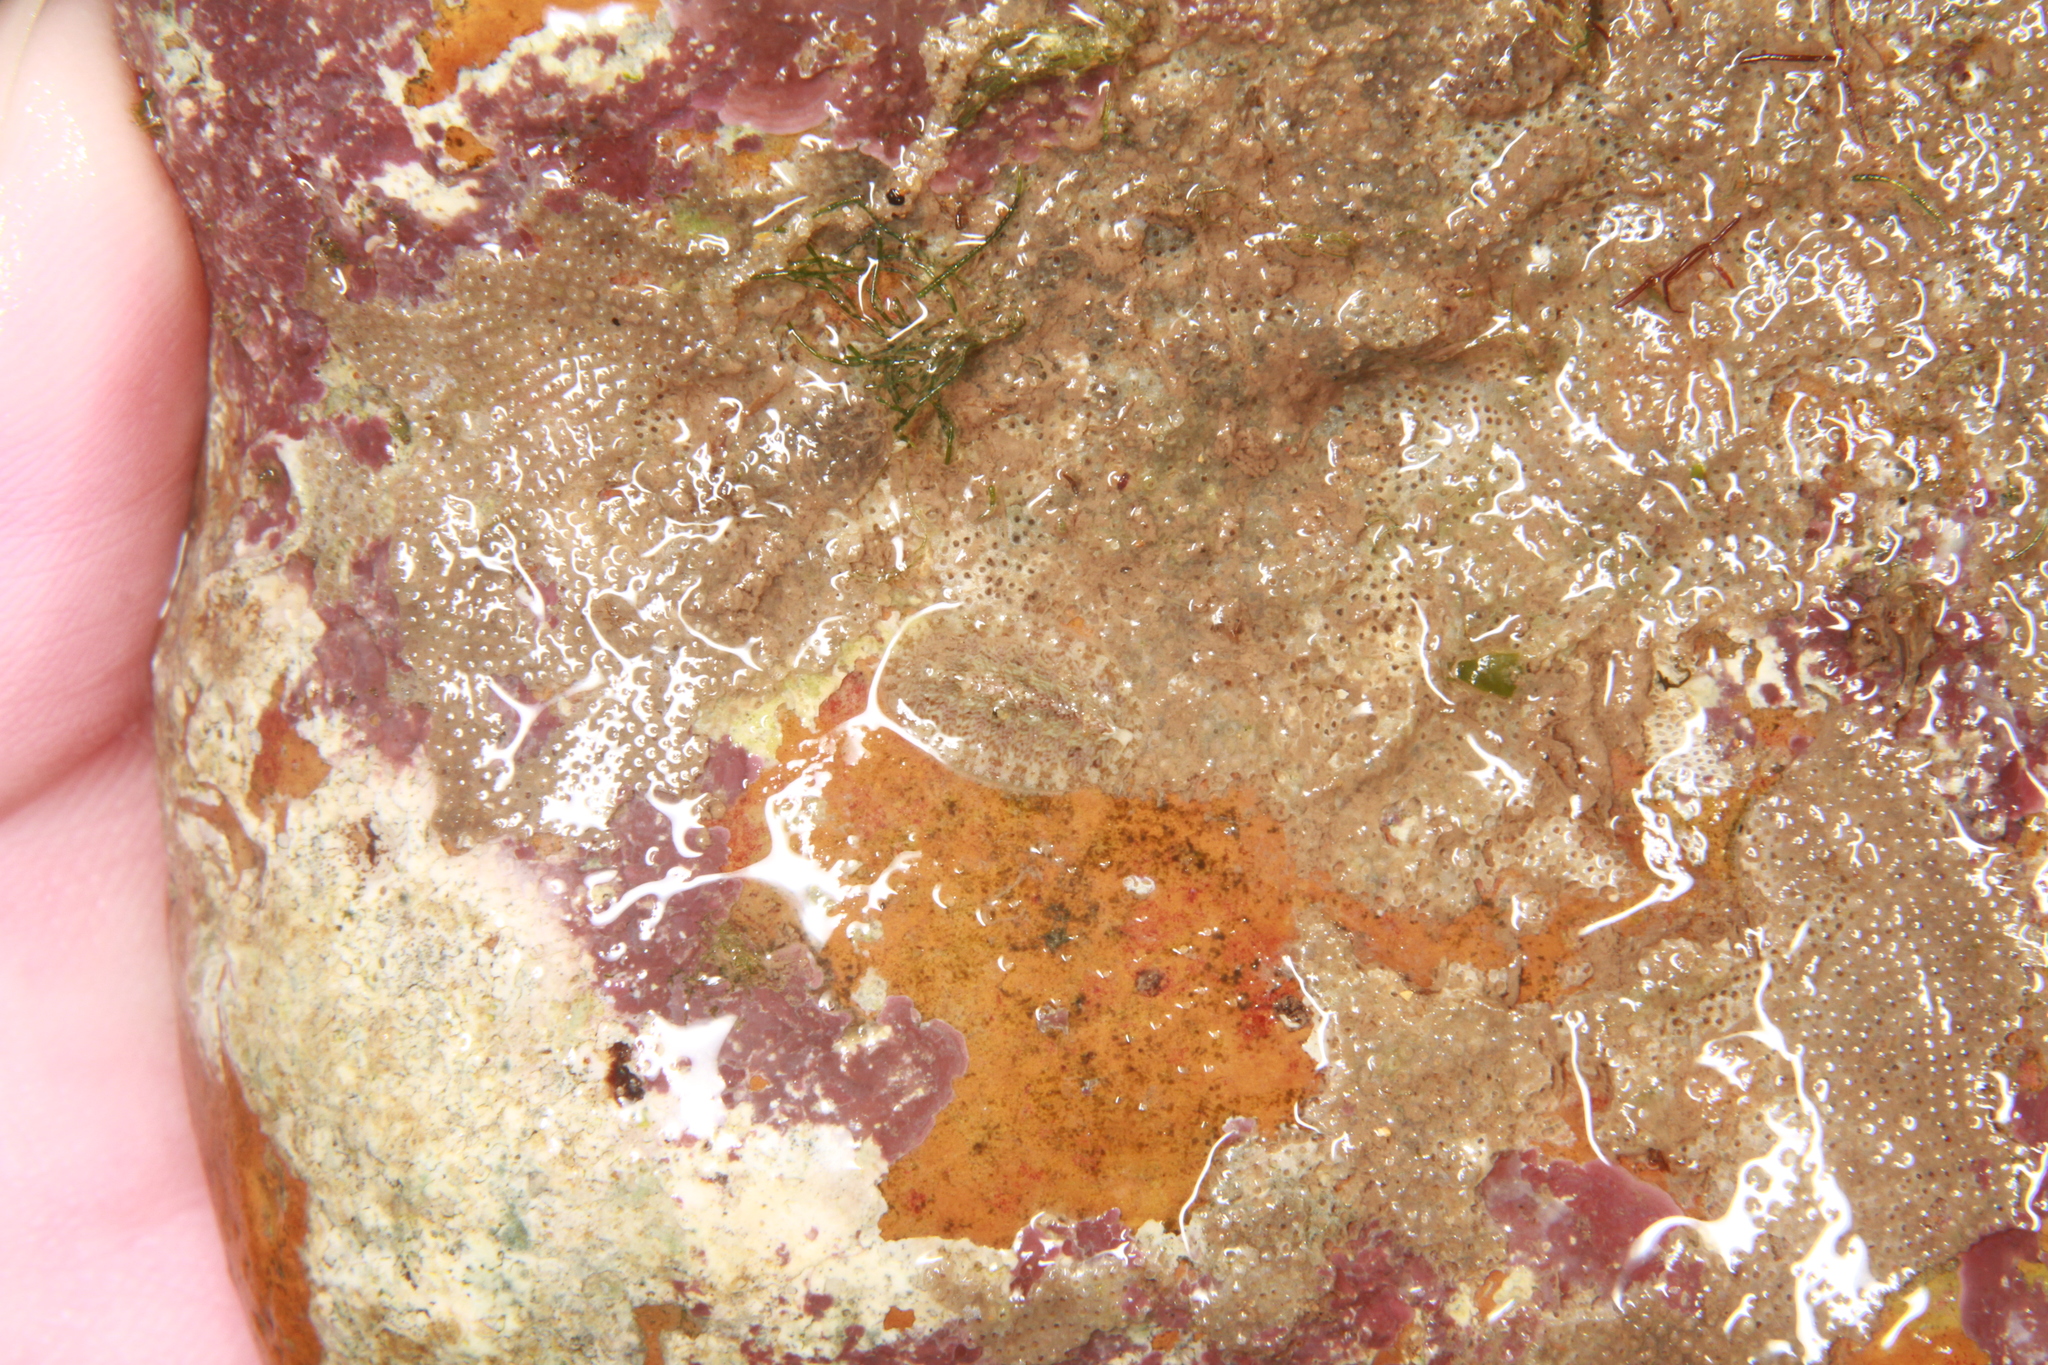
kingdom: Animalia
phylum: Mollusca
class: Polyplacophora
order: Chitonida
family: Tonicellidae
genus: Lepidochitona
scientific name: Lepidochitona cinerea
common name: Cinereous chiton
